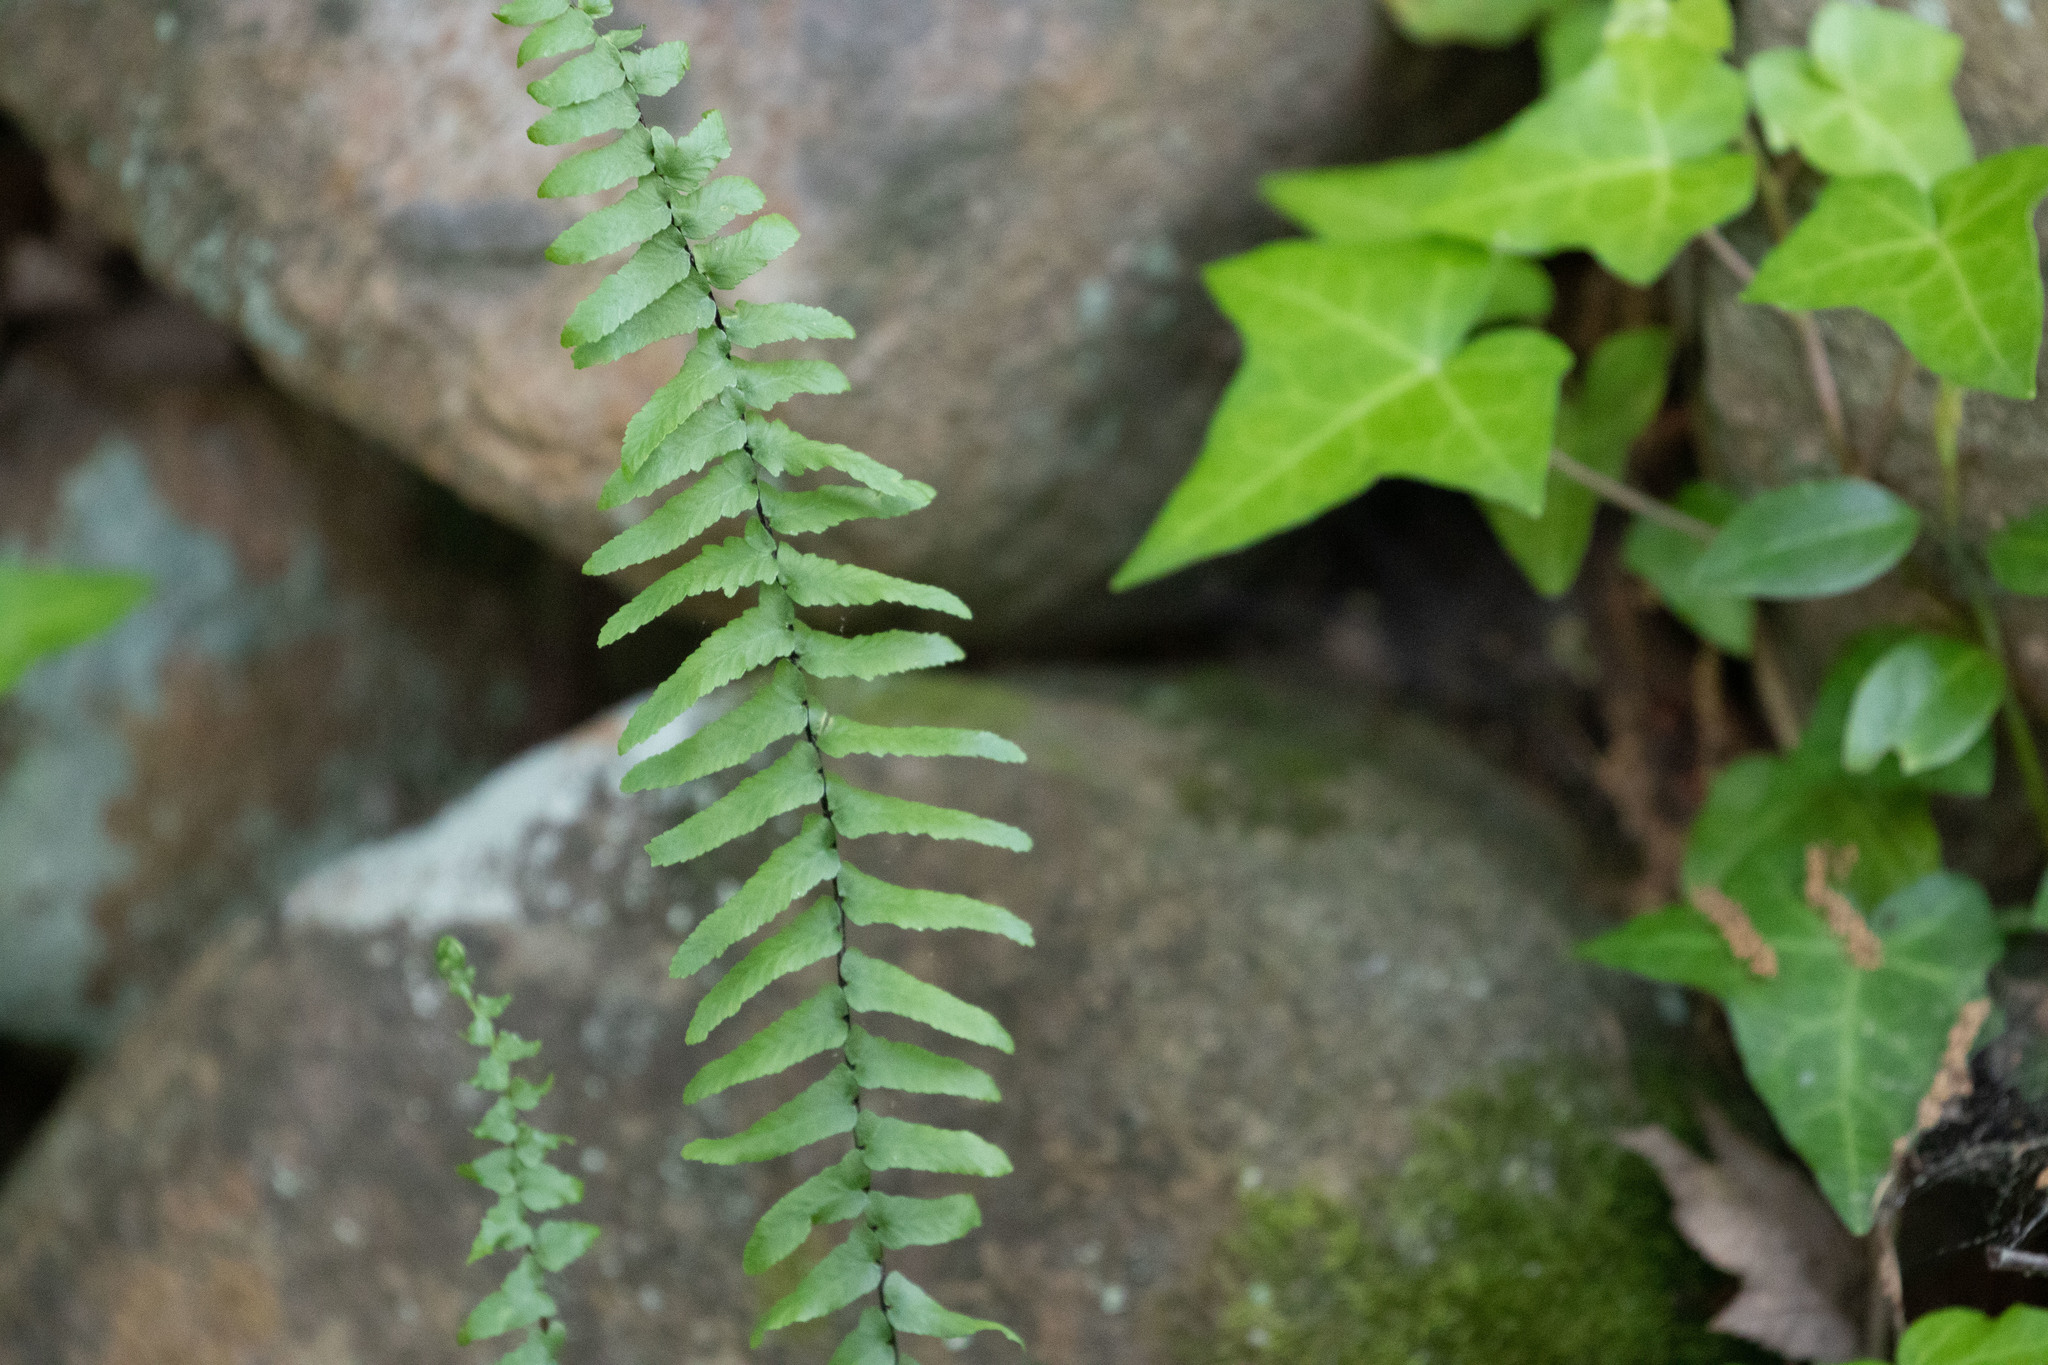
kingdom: Plantae
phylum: Tracheophyta
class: Polypodiopsida
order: Polypodiales
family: Aspleniaceae
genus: Asplenium
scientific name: Asplenium platyneuron
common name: Ebony spleenwort
